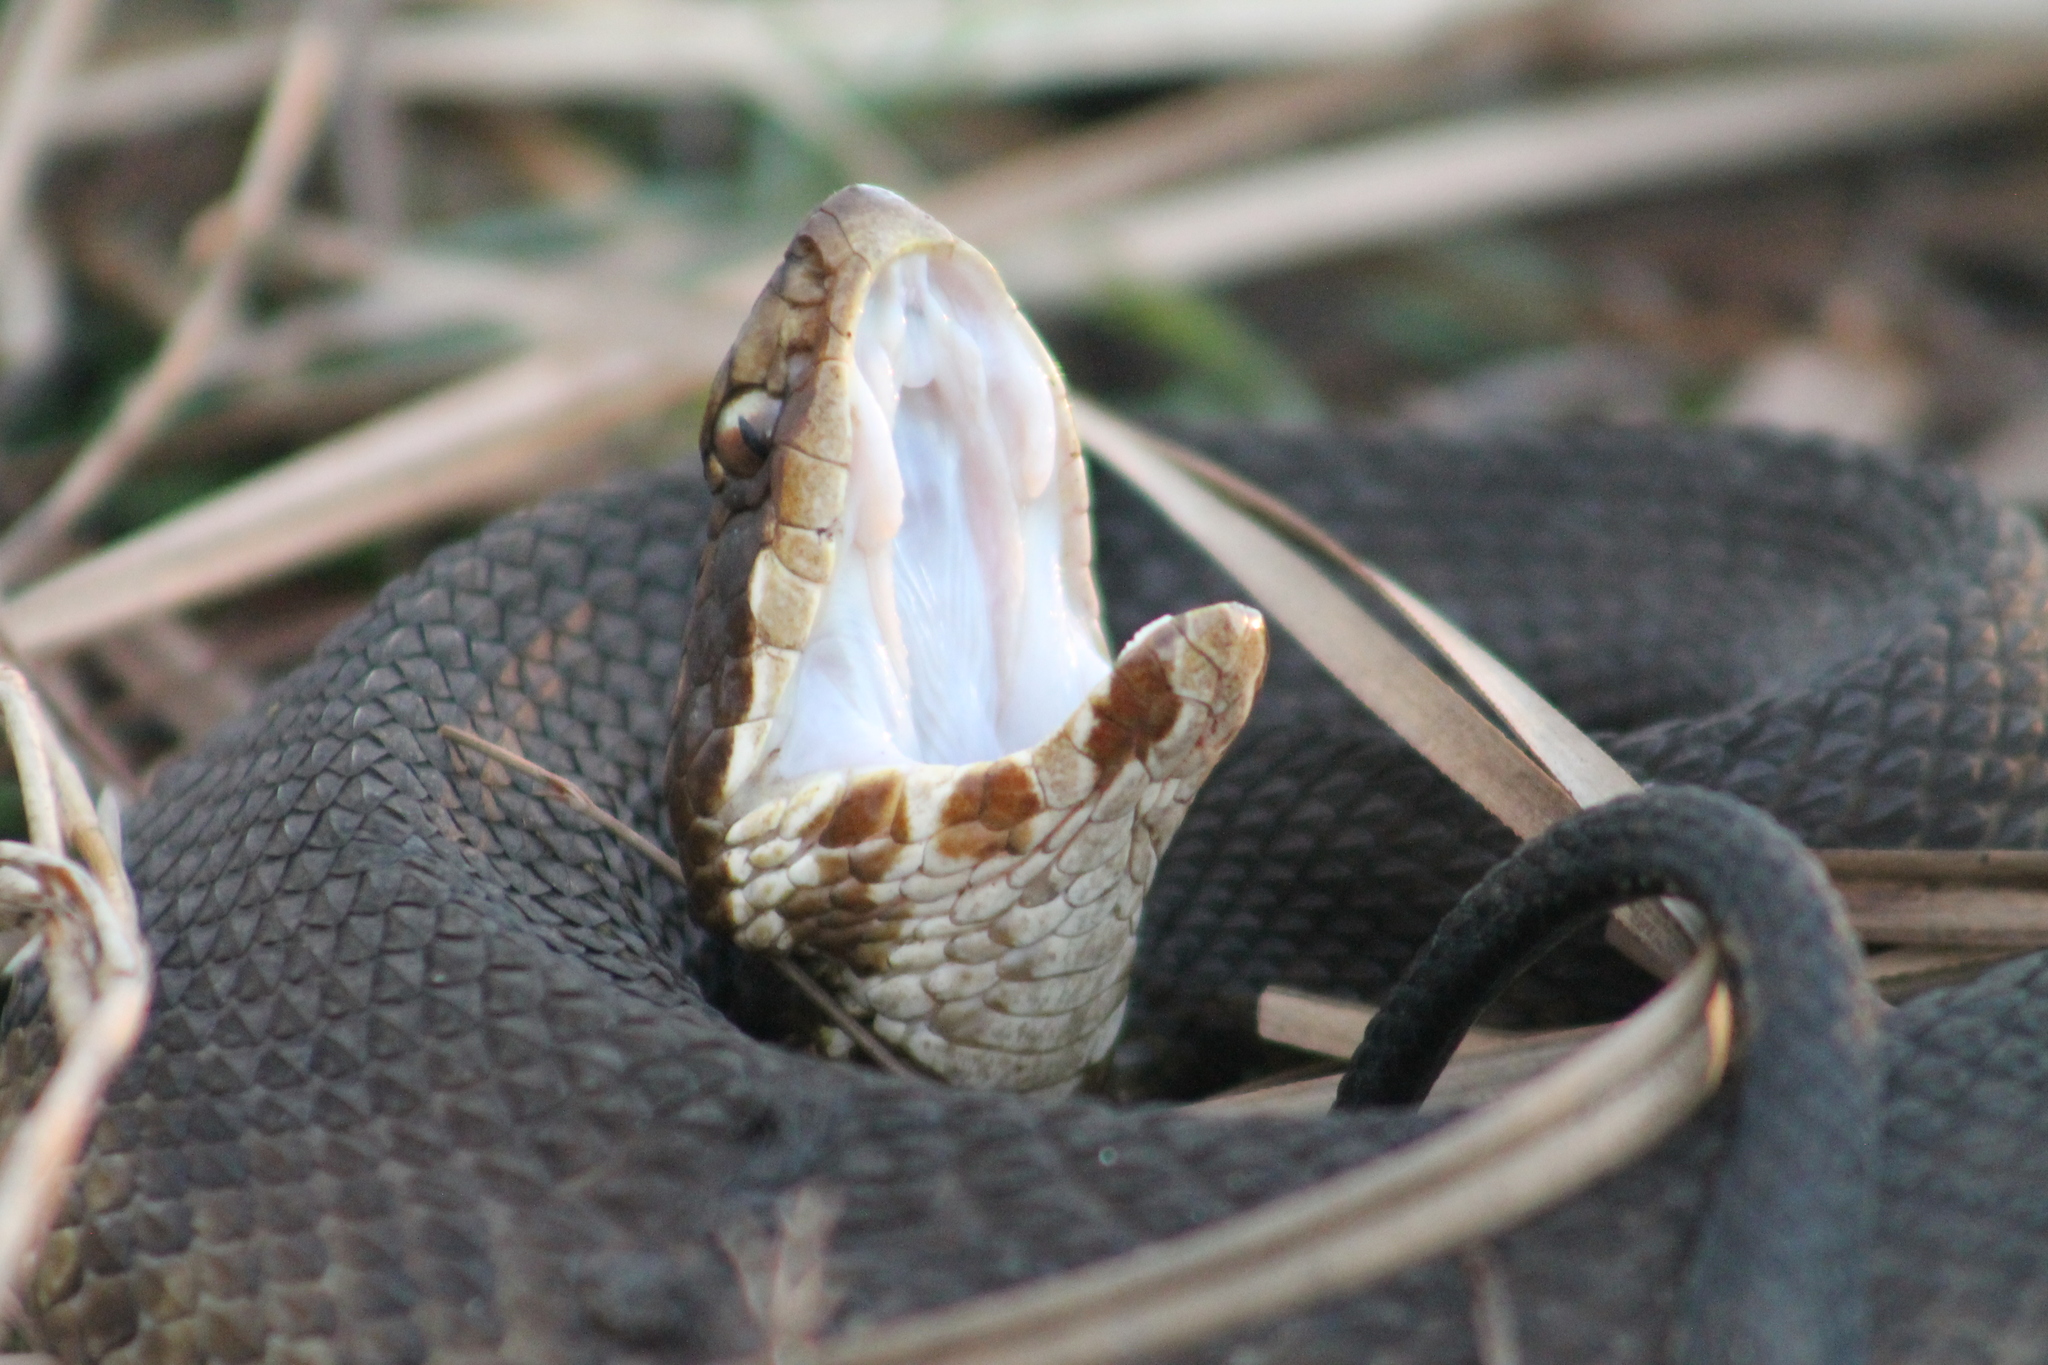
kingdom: Animalia
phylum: Chordata
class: Squamata
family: Viperidae
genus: Agkistrodon
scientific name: Agkistrodon piscivorus
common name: Cottonmouth
